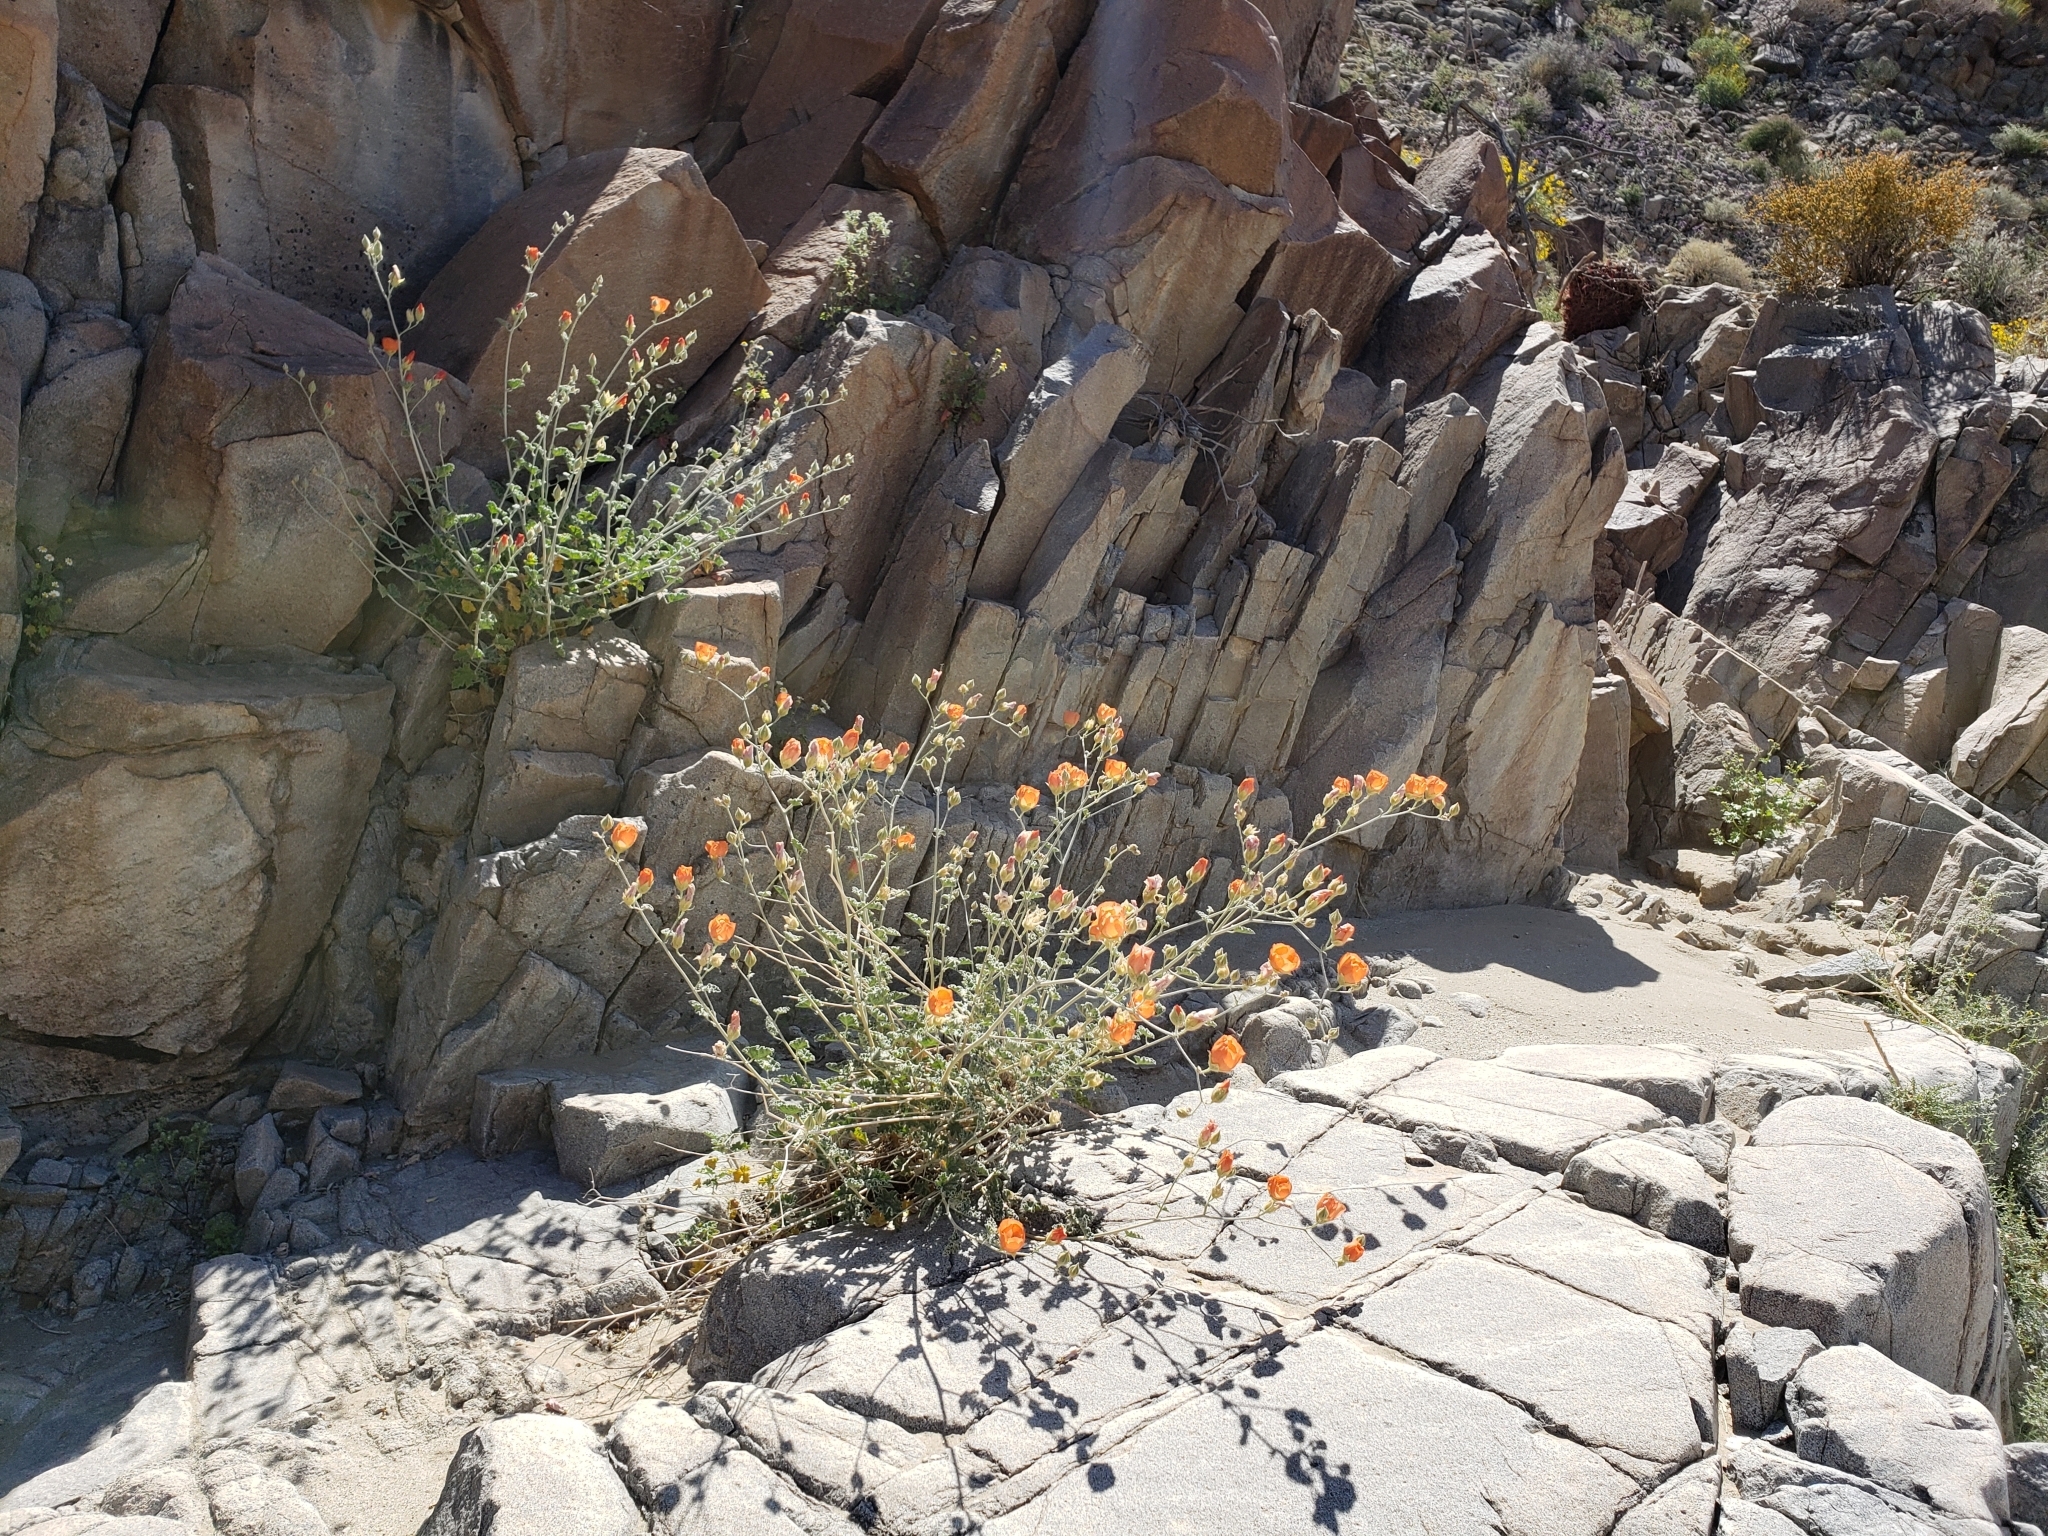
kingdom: Plantae
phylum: Tracheophyta
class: Magnoliopsida
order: Malvales
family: Malvaceae
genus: Sphaeralcea
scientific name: Sphaeralcea ambigua
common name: Apricot globe-mallow
